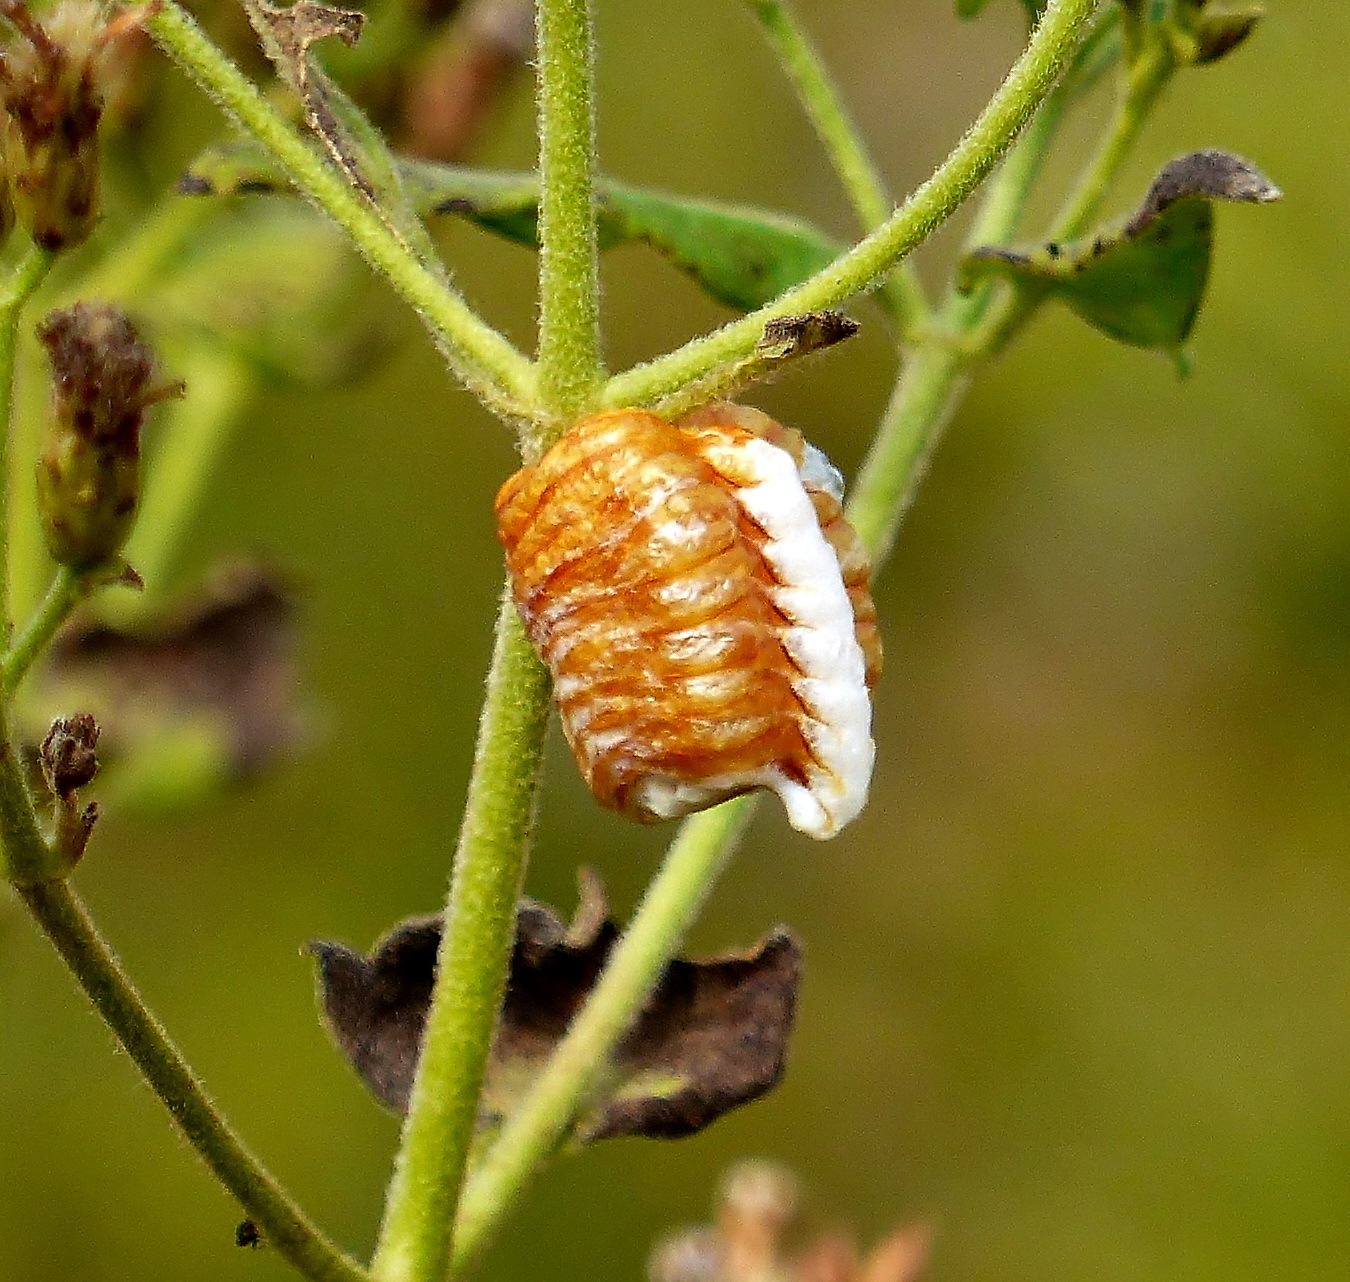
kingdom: Animalia
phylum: Arthropoda
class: Insecta
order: Mantodea
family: Mantidae
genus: Pseudovates
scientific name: Pseudovates chlorophaea
